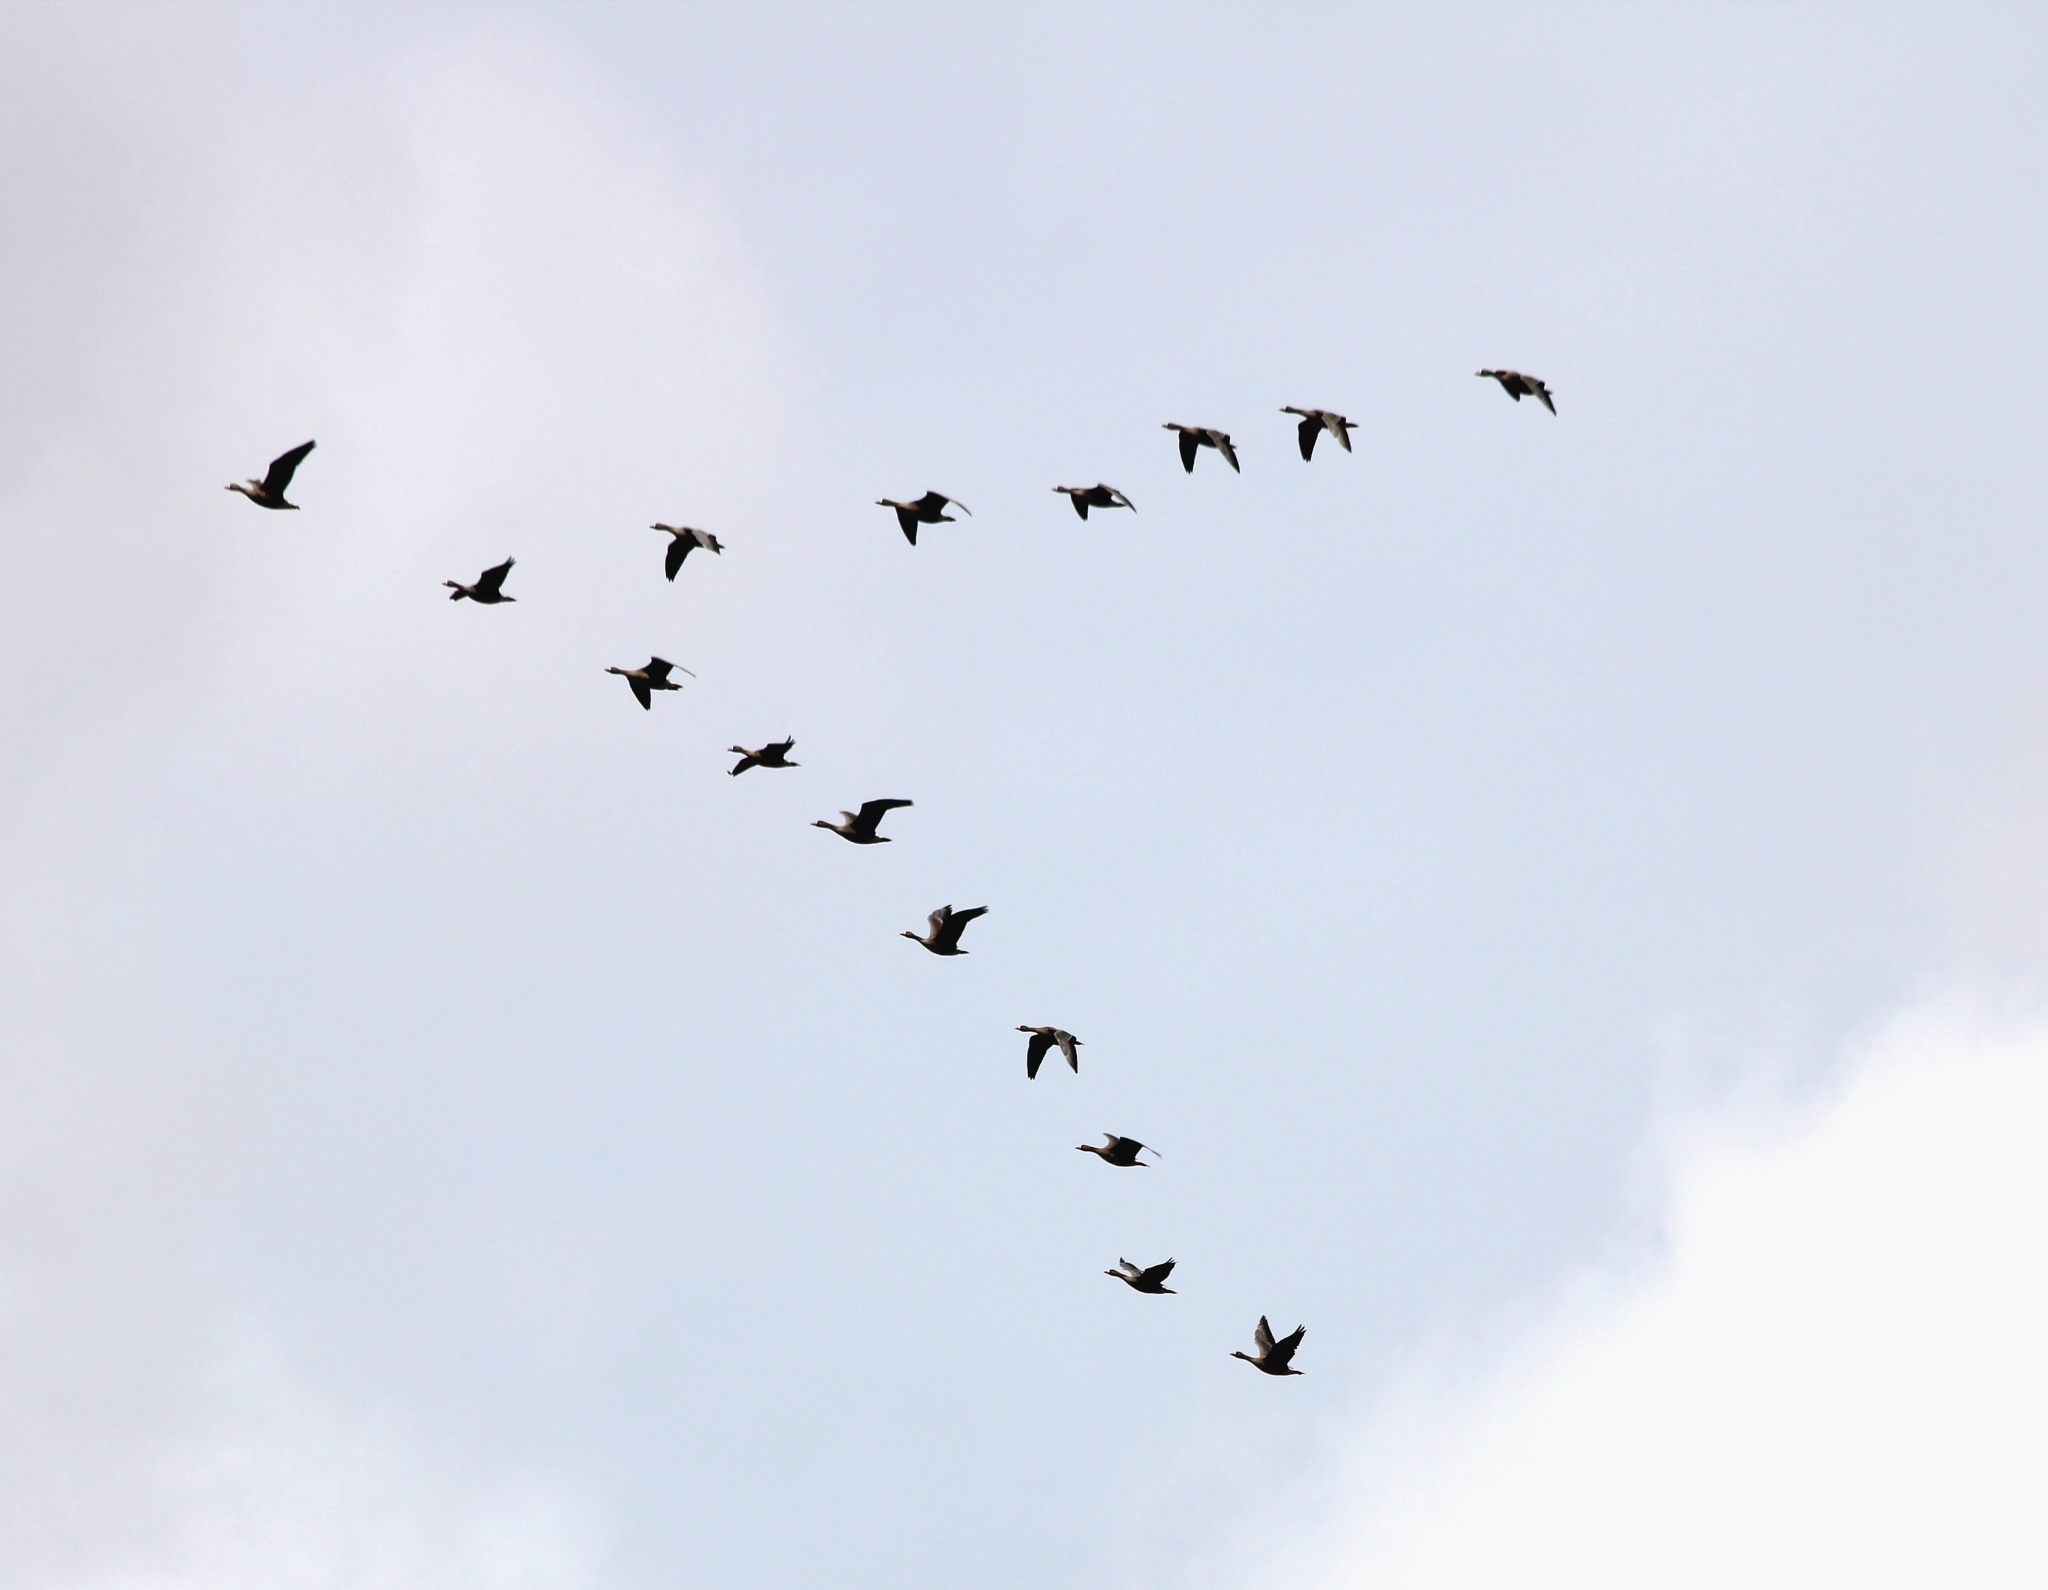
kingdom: Animalia
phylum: Chordata
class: Aves
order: Anseriformes
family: Anatidae
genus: Anser
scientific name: Anser albifrons
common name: Greater white-fronted goose
